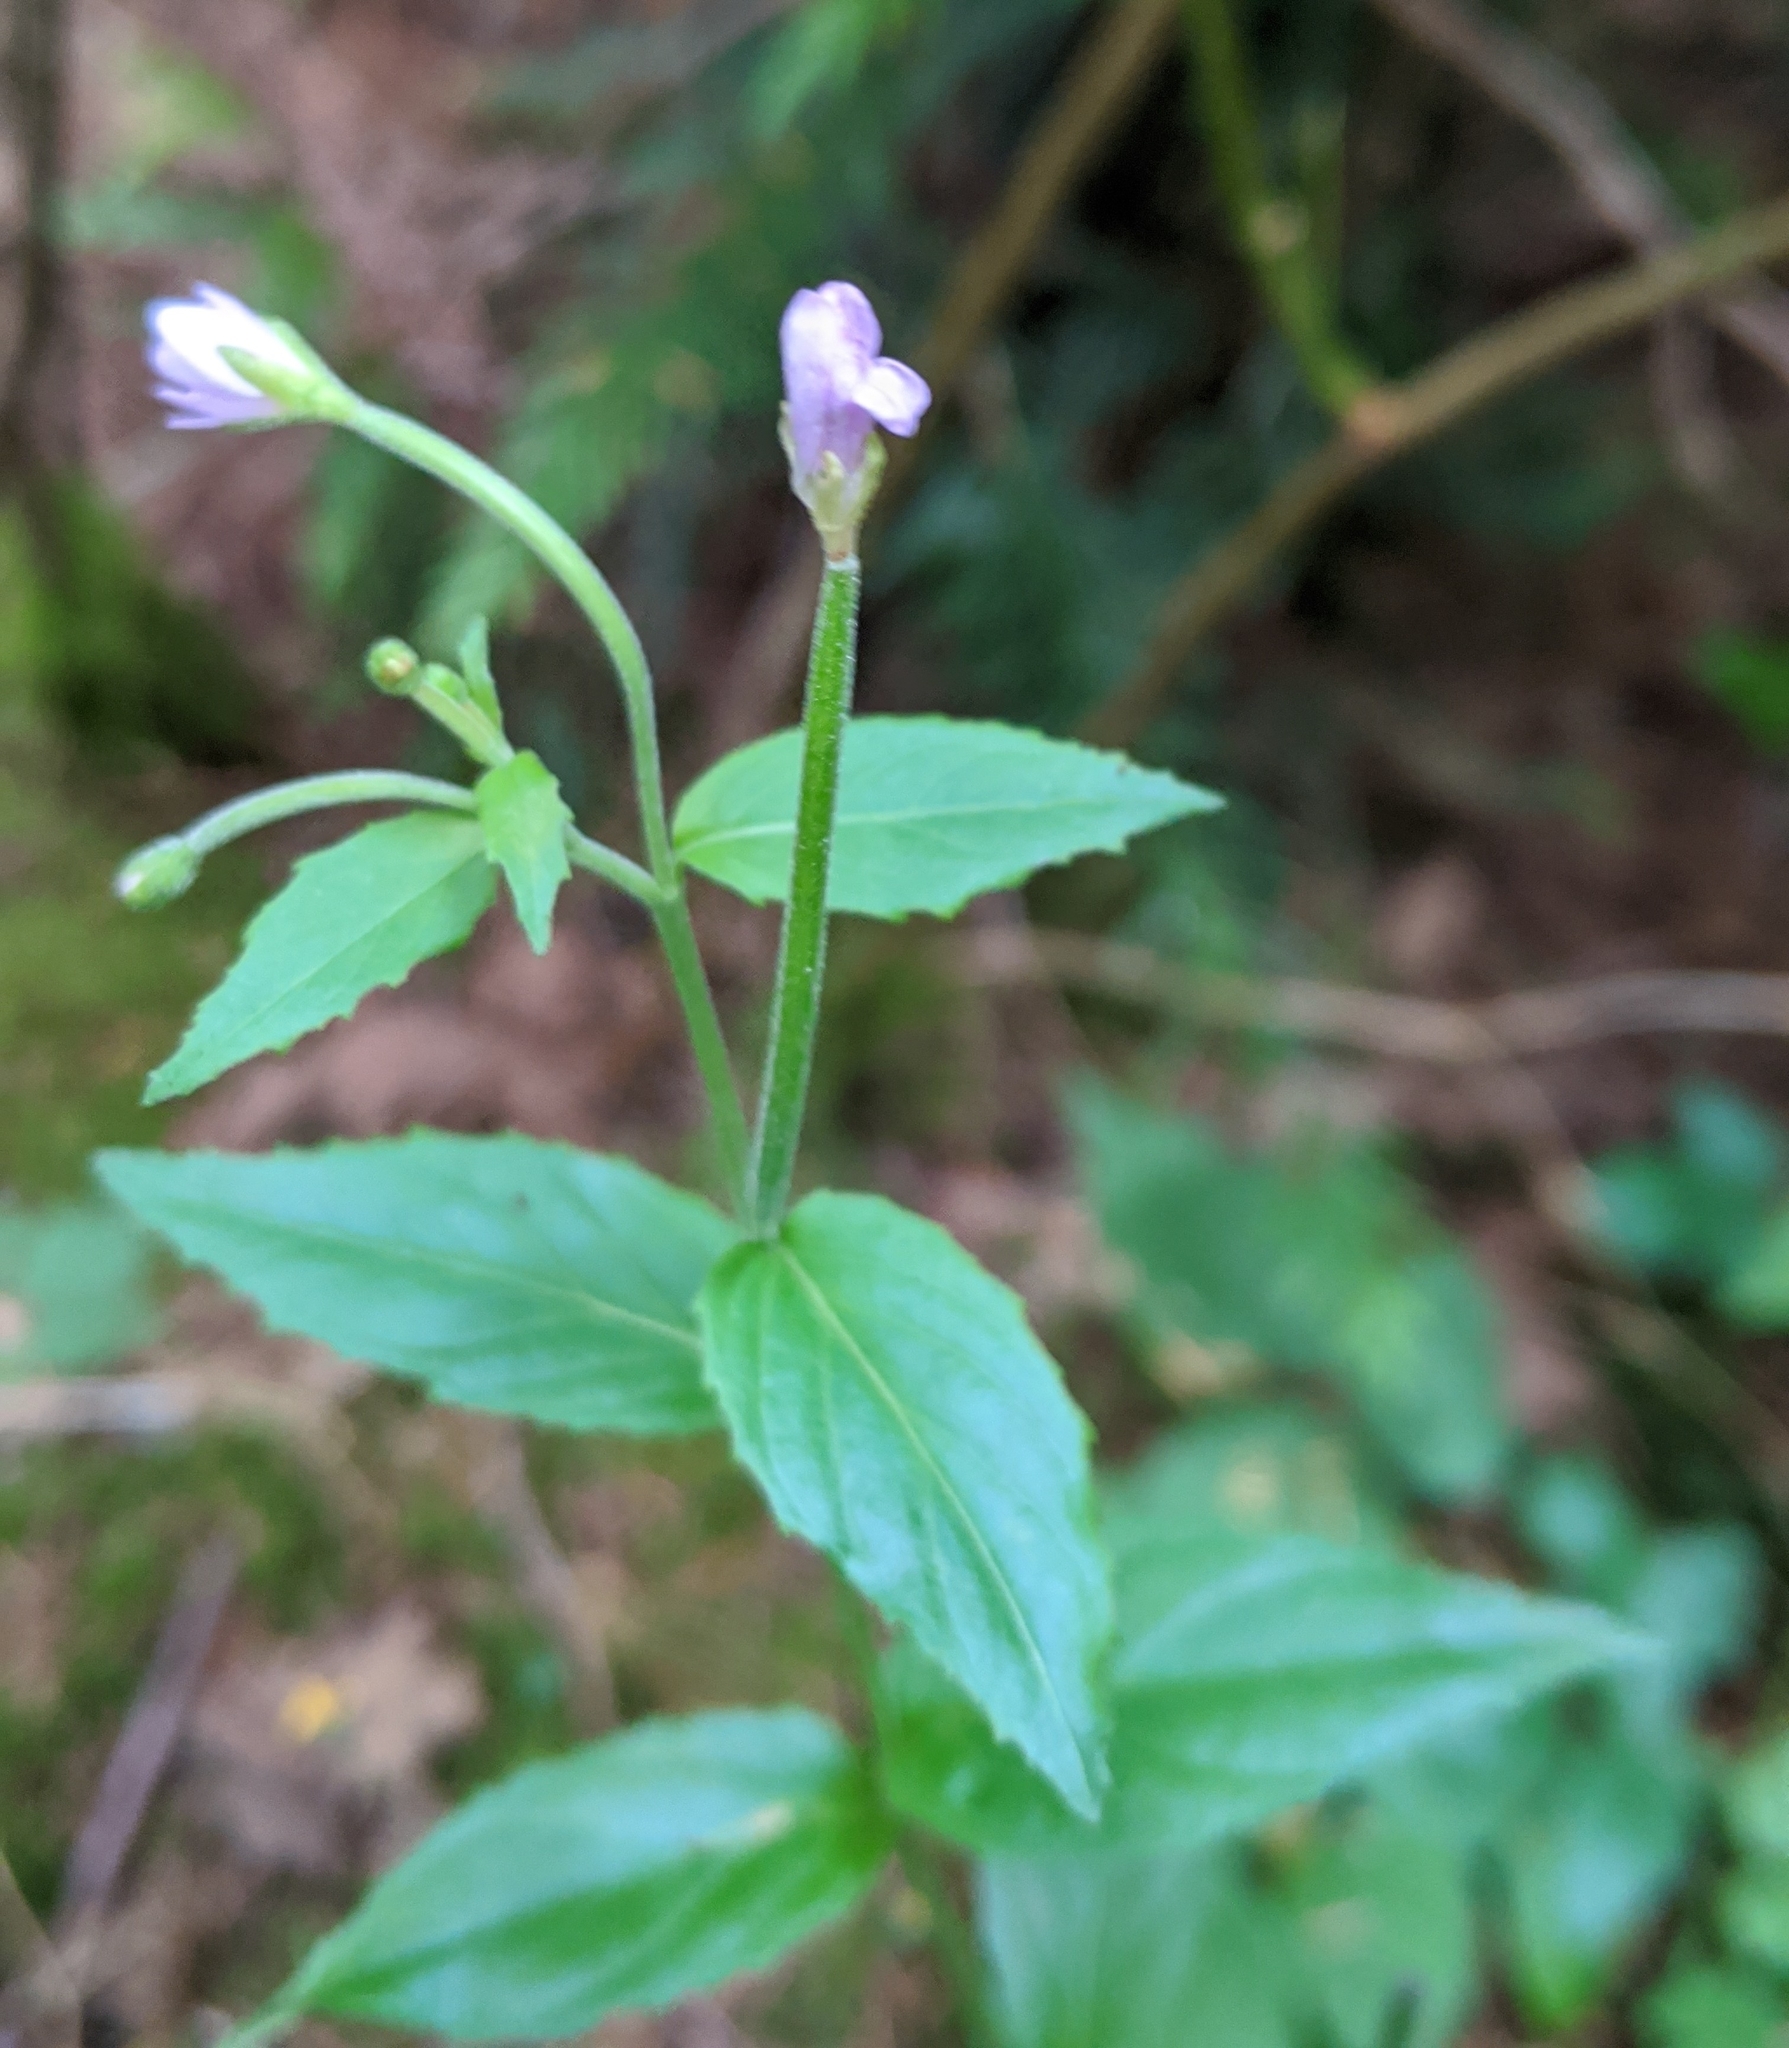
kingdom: Plantae
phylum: Tracheophyta
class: Magnoliopsida
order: Myrtales
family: Onagraceae
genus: Epilobium
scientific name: Epilobium ciliatum
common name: American willowherb
